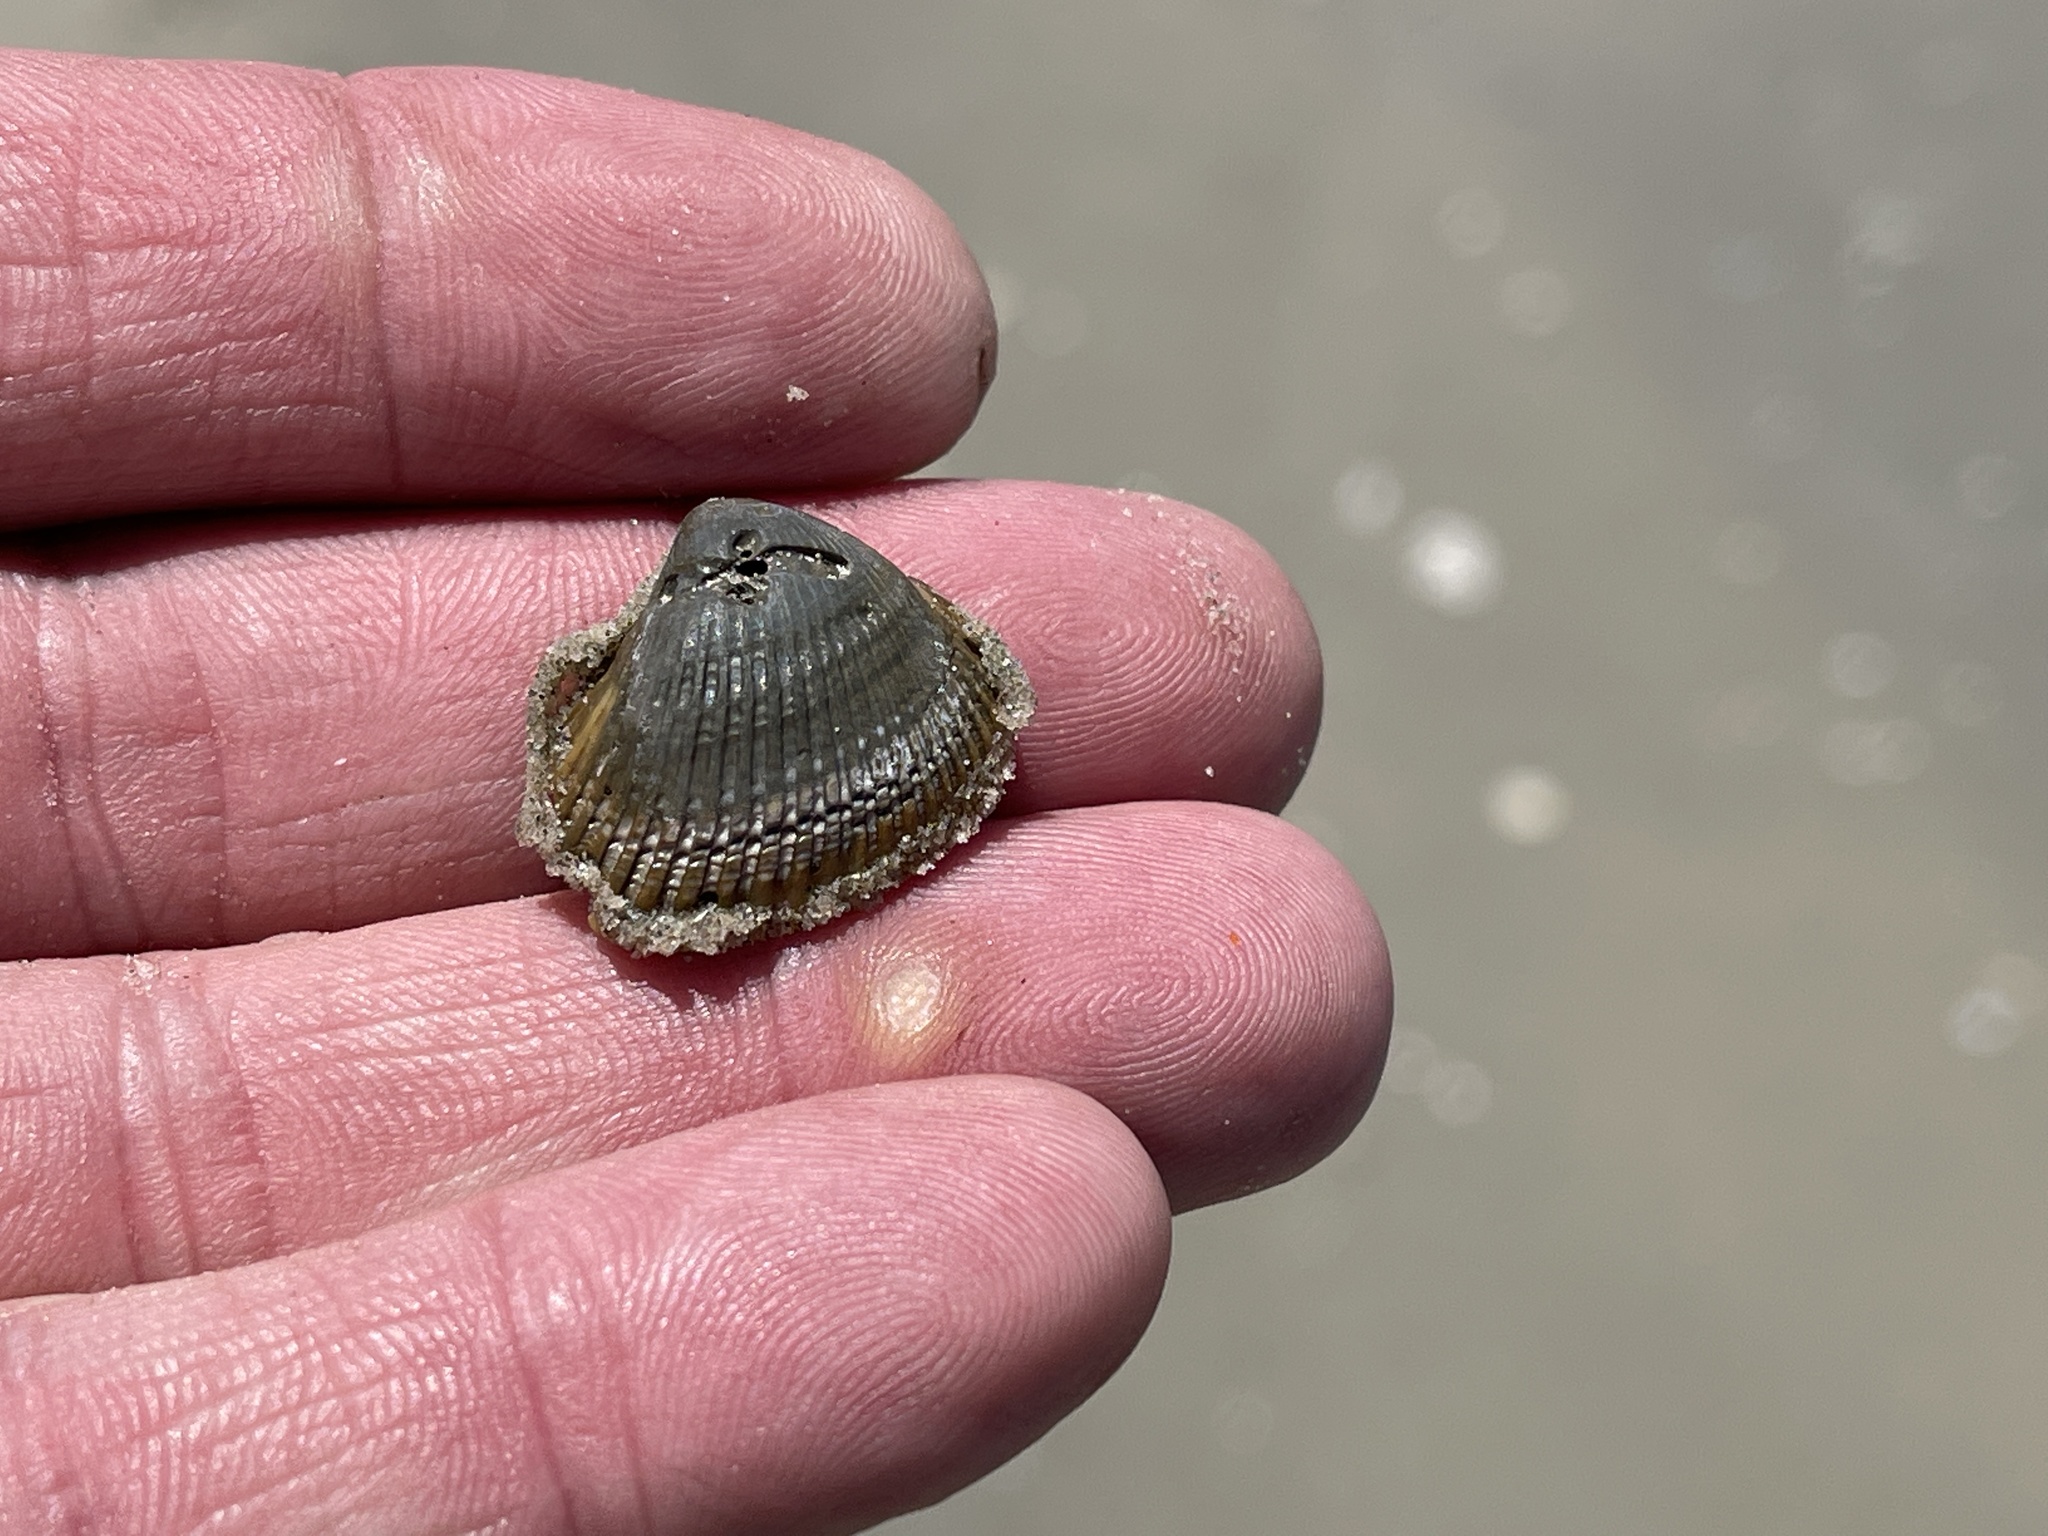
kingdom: Animalia
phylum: Mollusca
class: Bivalvia
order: Arcida
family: Noetiidae
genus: Noetia
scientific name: Noetia ponderosa
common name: Ponderous ark
